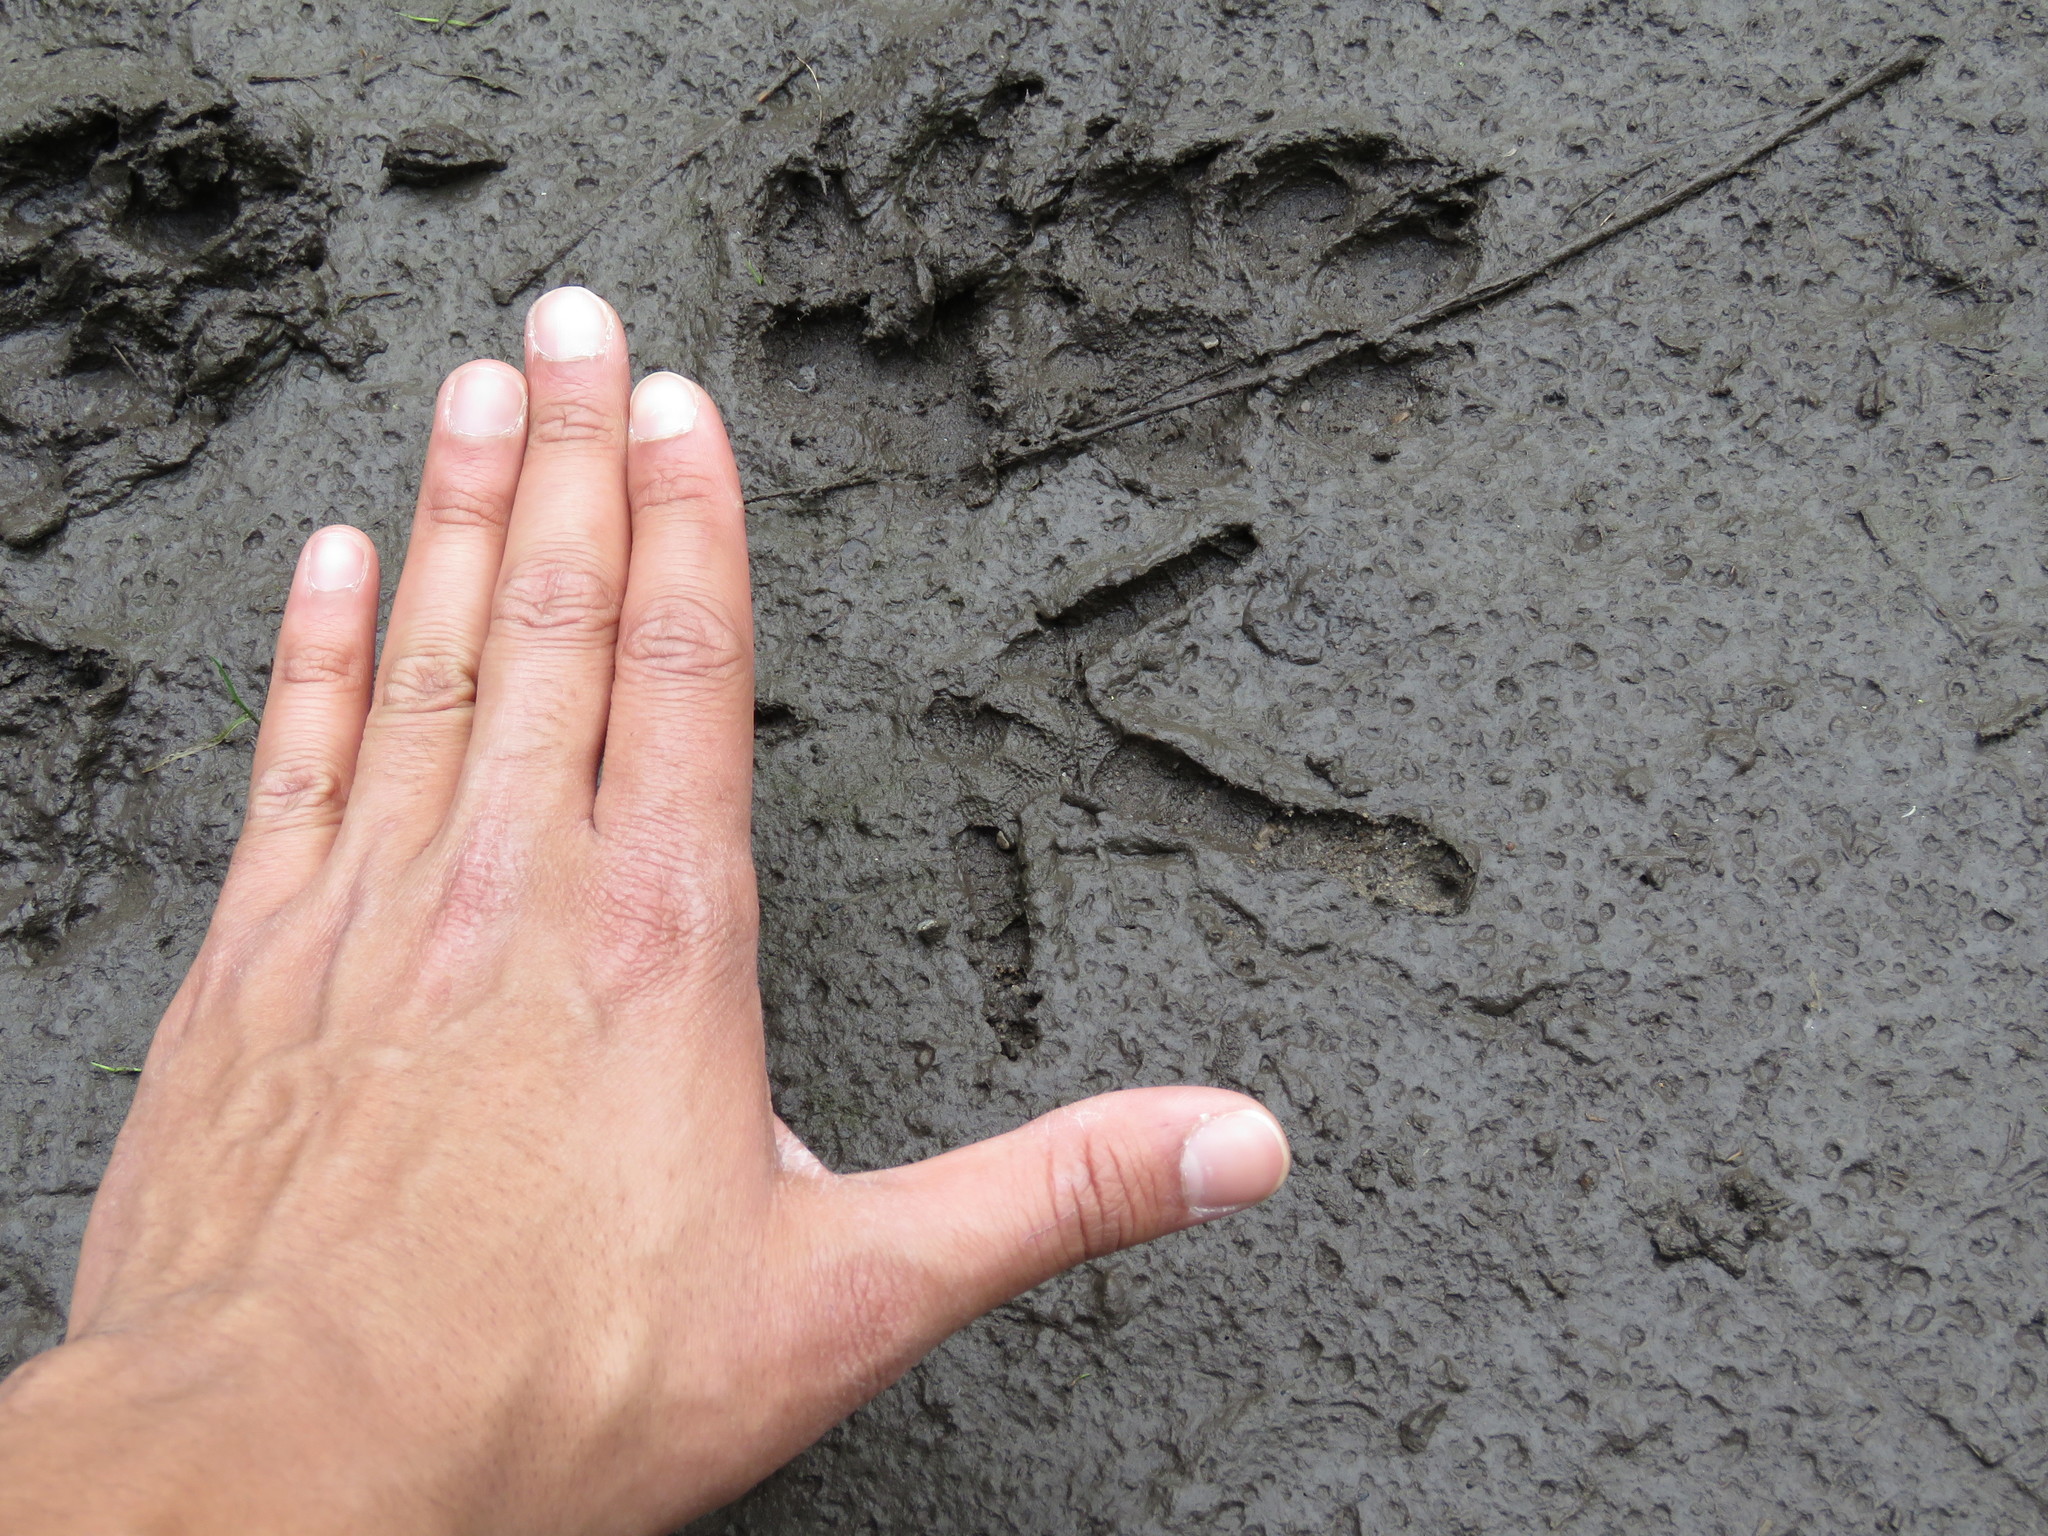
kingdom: Animalia
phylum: Chordata
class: Aves
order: Galliformes
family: Phasianidae
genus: Meleagris
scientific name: Meleagris gallopavo
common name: Wild turkey
